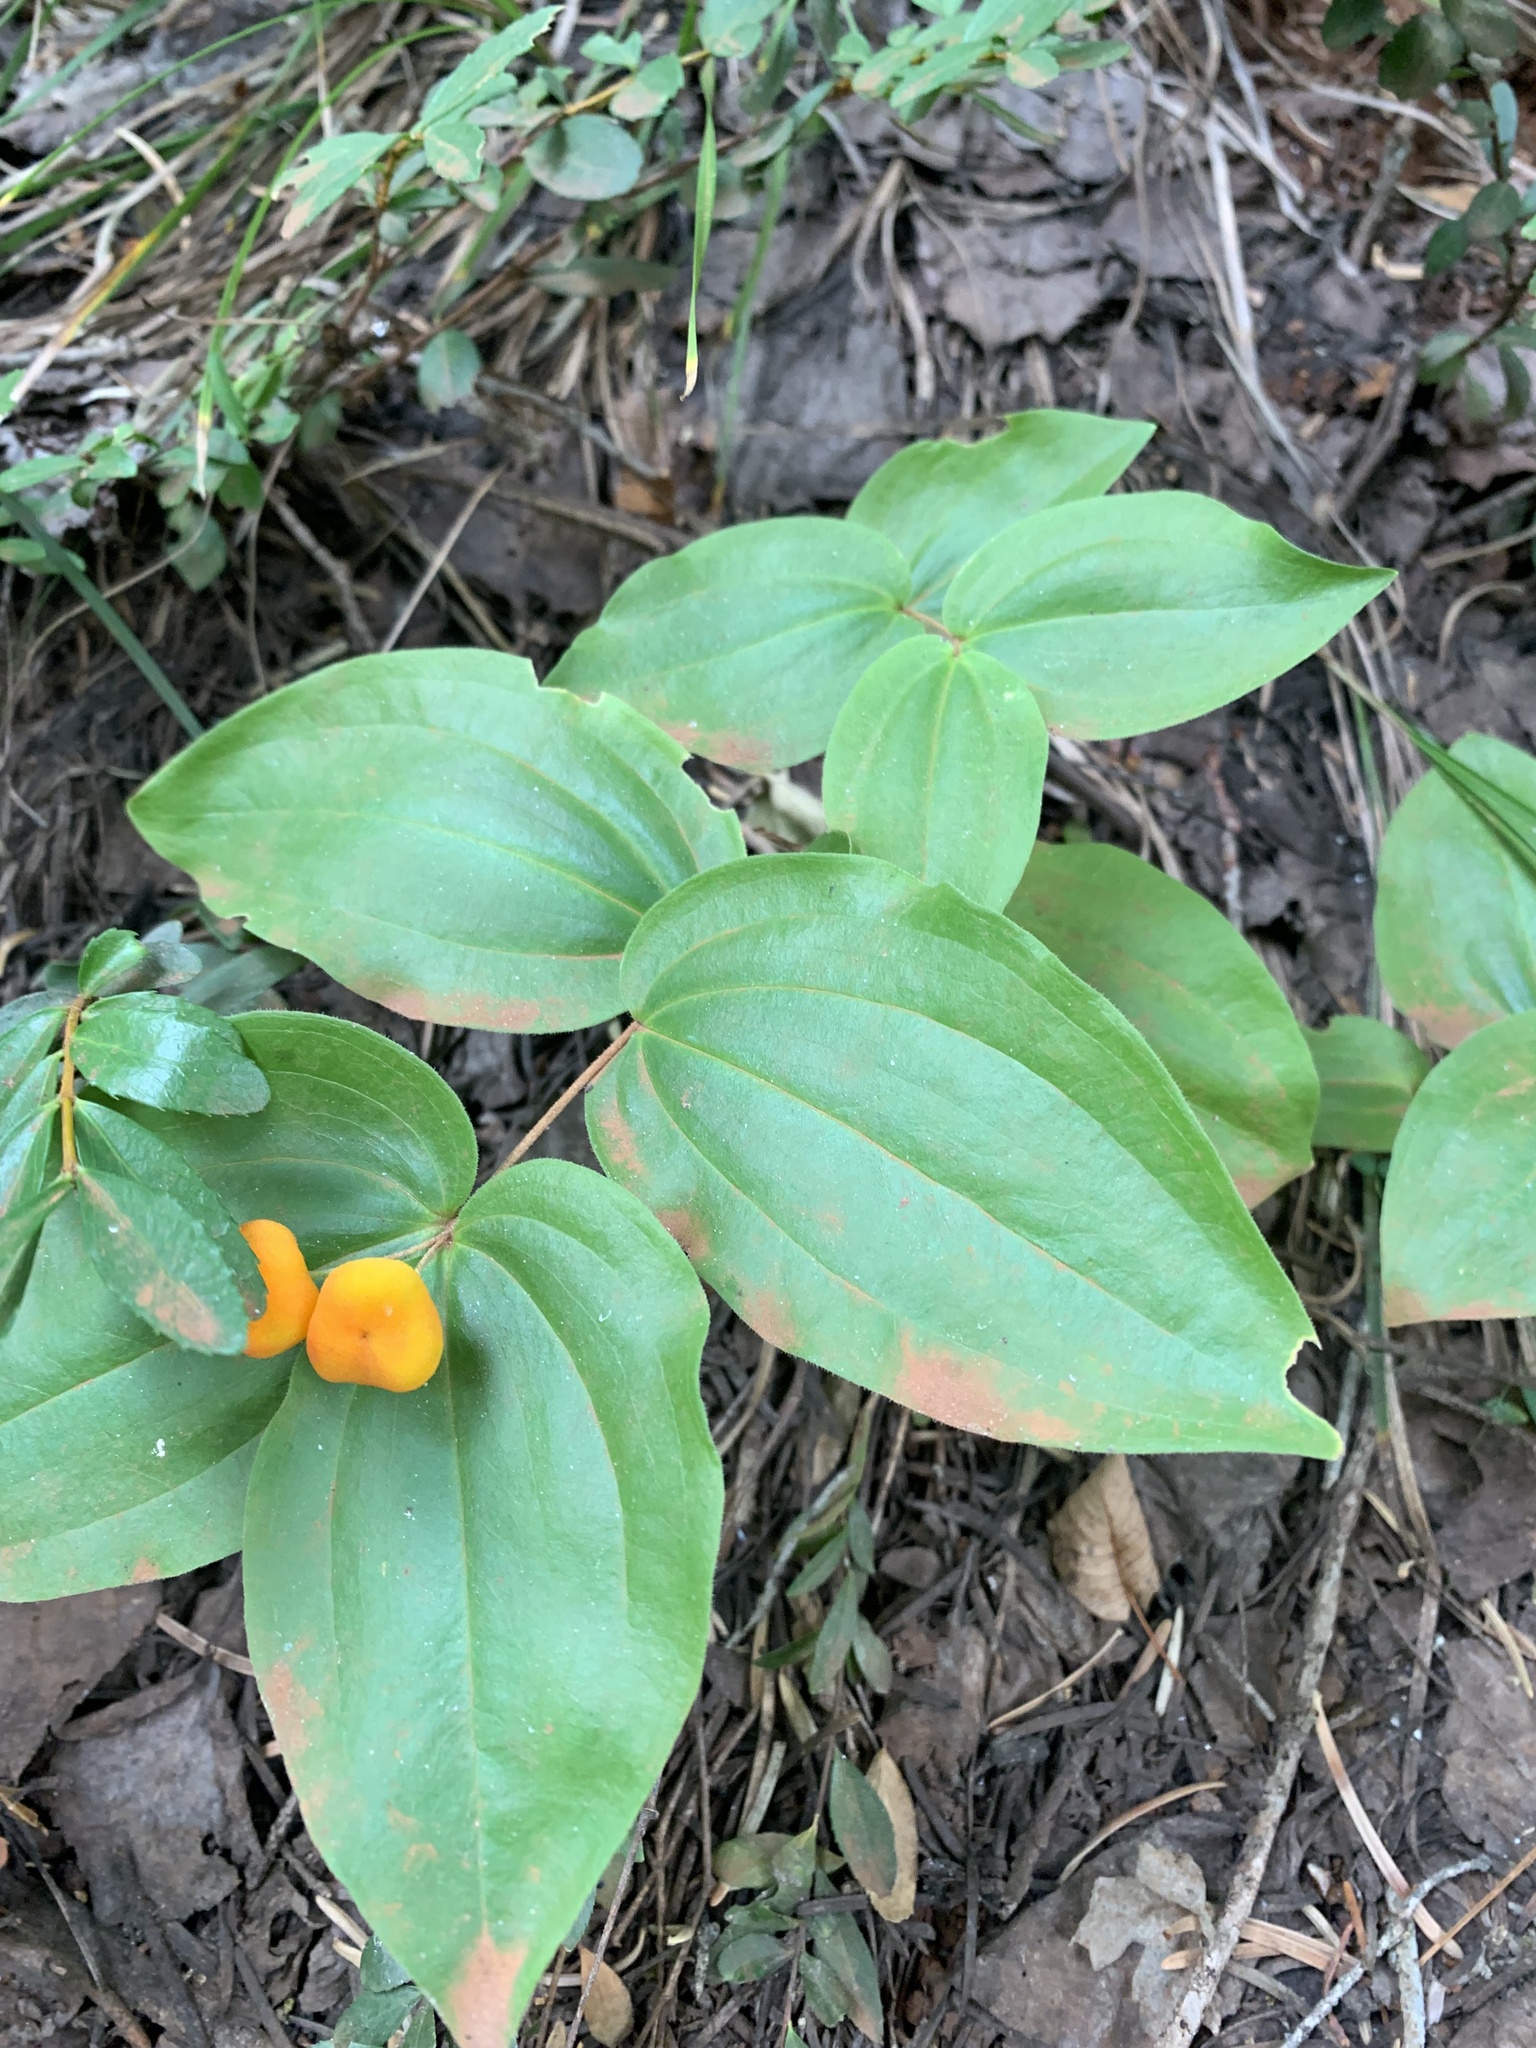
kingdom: Plantae
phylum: Tracheophyta
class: Liliopsida
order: Liliales
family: Liliaceae
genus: Prosartes
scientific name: Prosartes trachycarpa
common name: Rough-fruit fairy-bells
